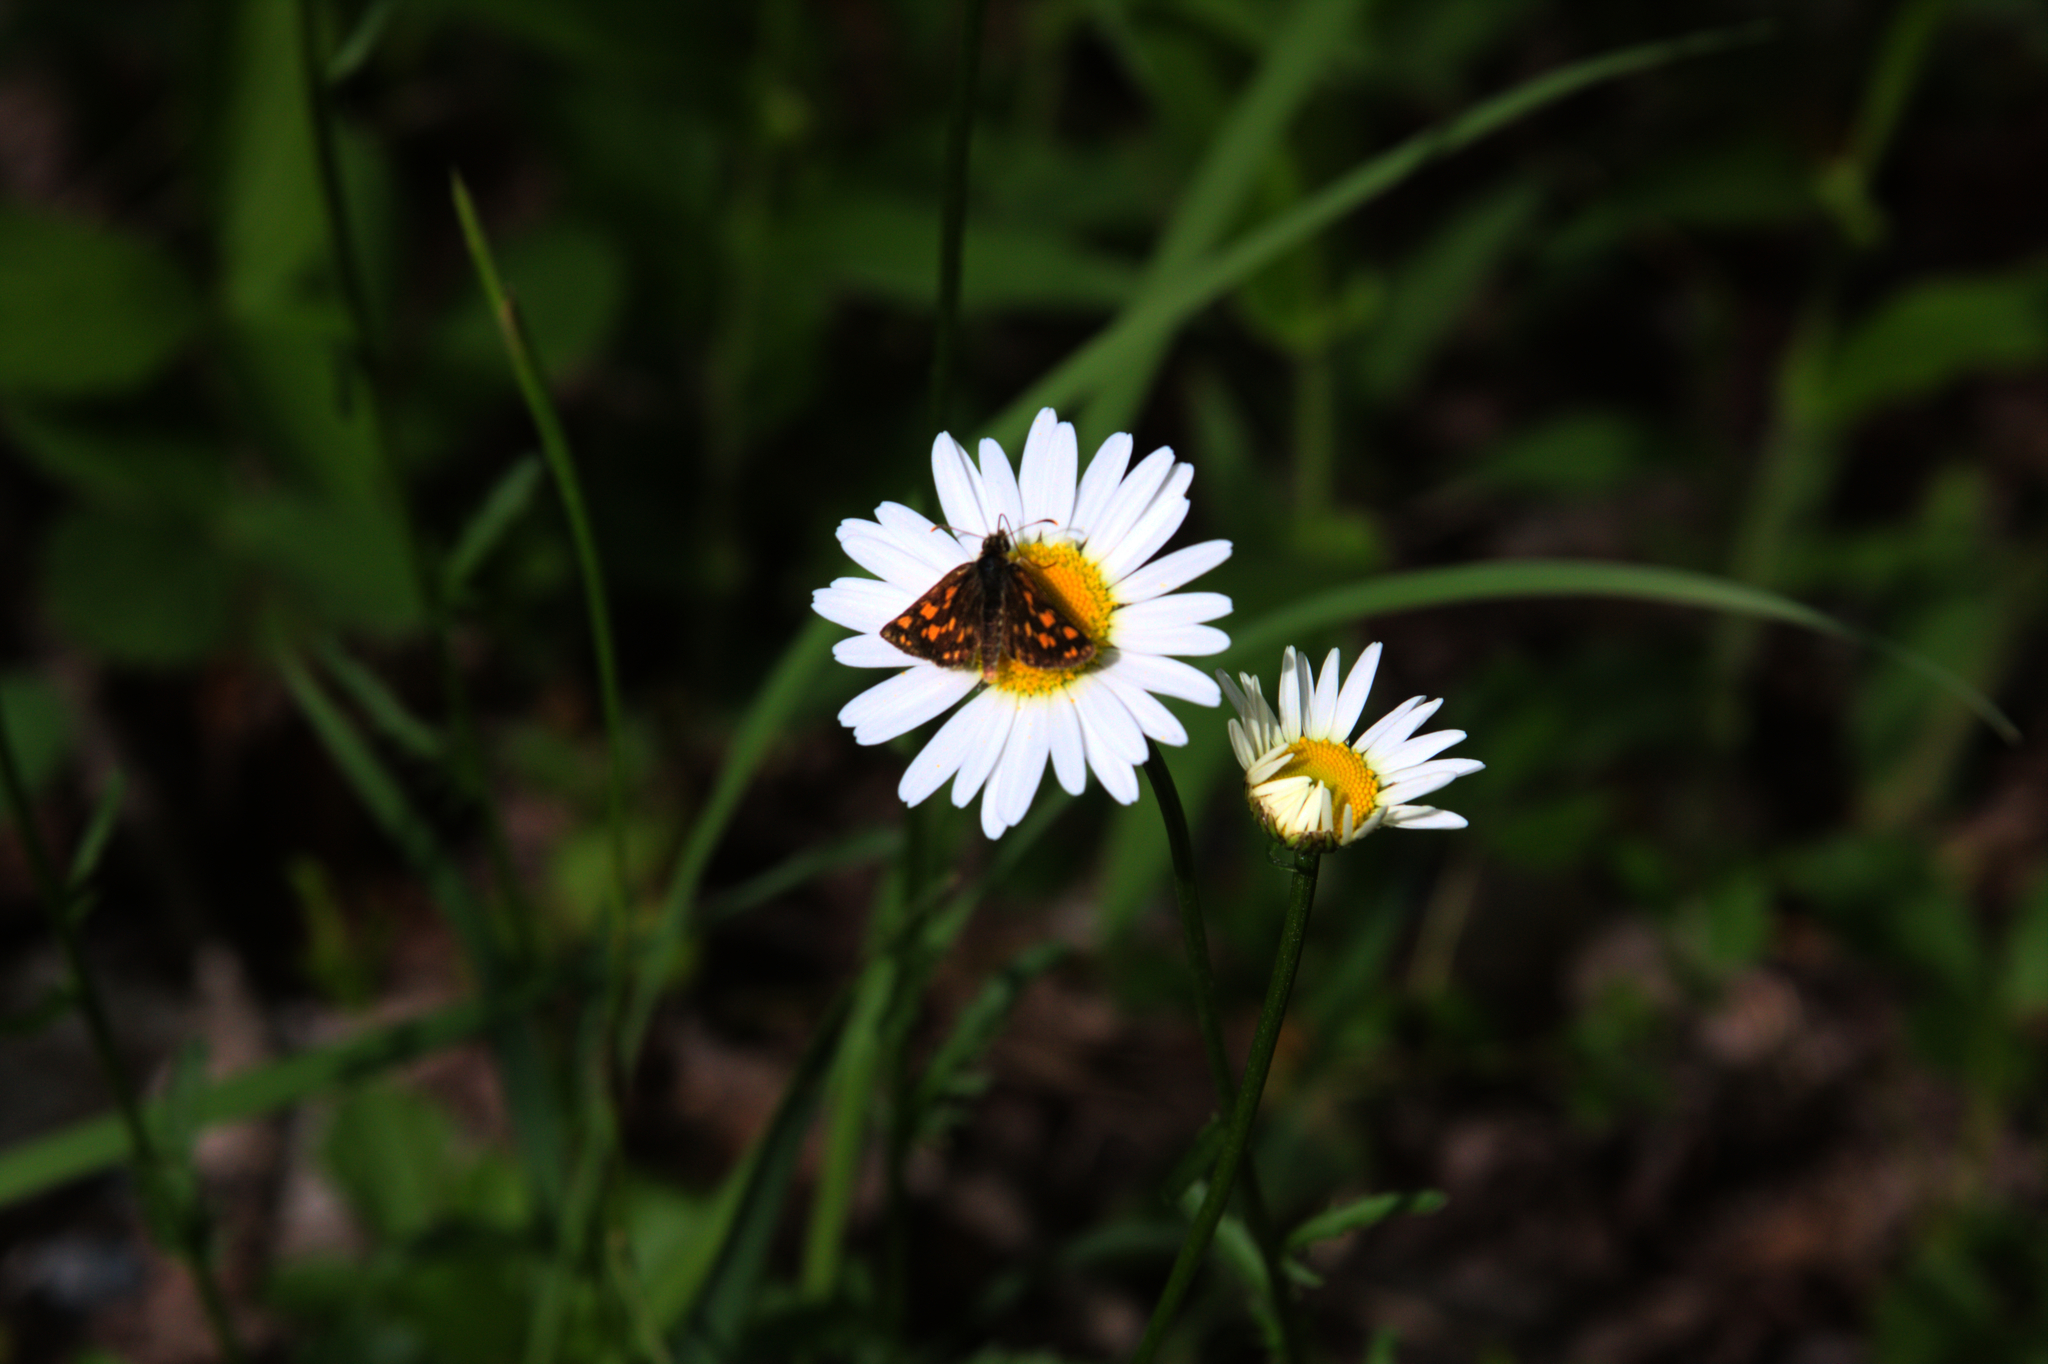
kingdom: Animalia
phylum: Arthropoda
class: Insecta
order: Lepidoptera
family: Hesperiidae
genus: Carterocephalus
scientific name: Carterocephalus mandan
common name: Arctic skipperling
